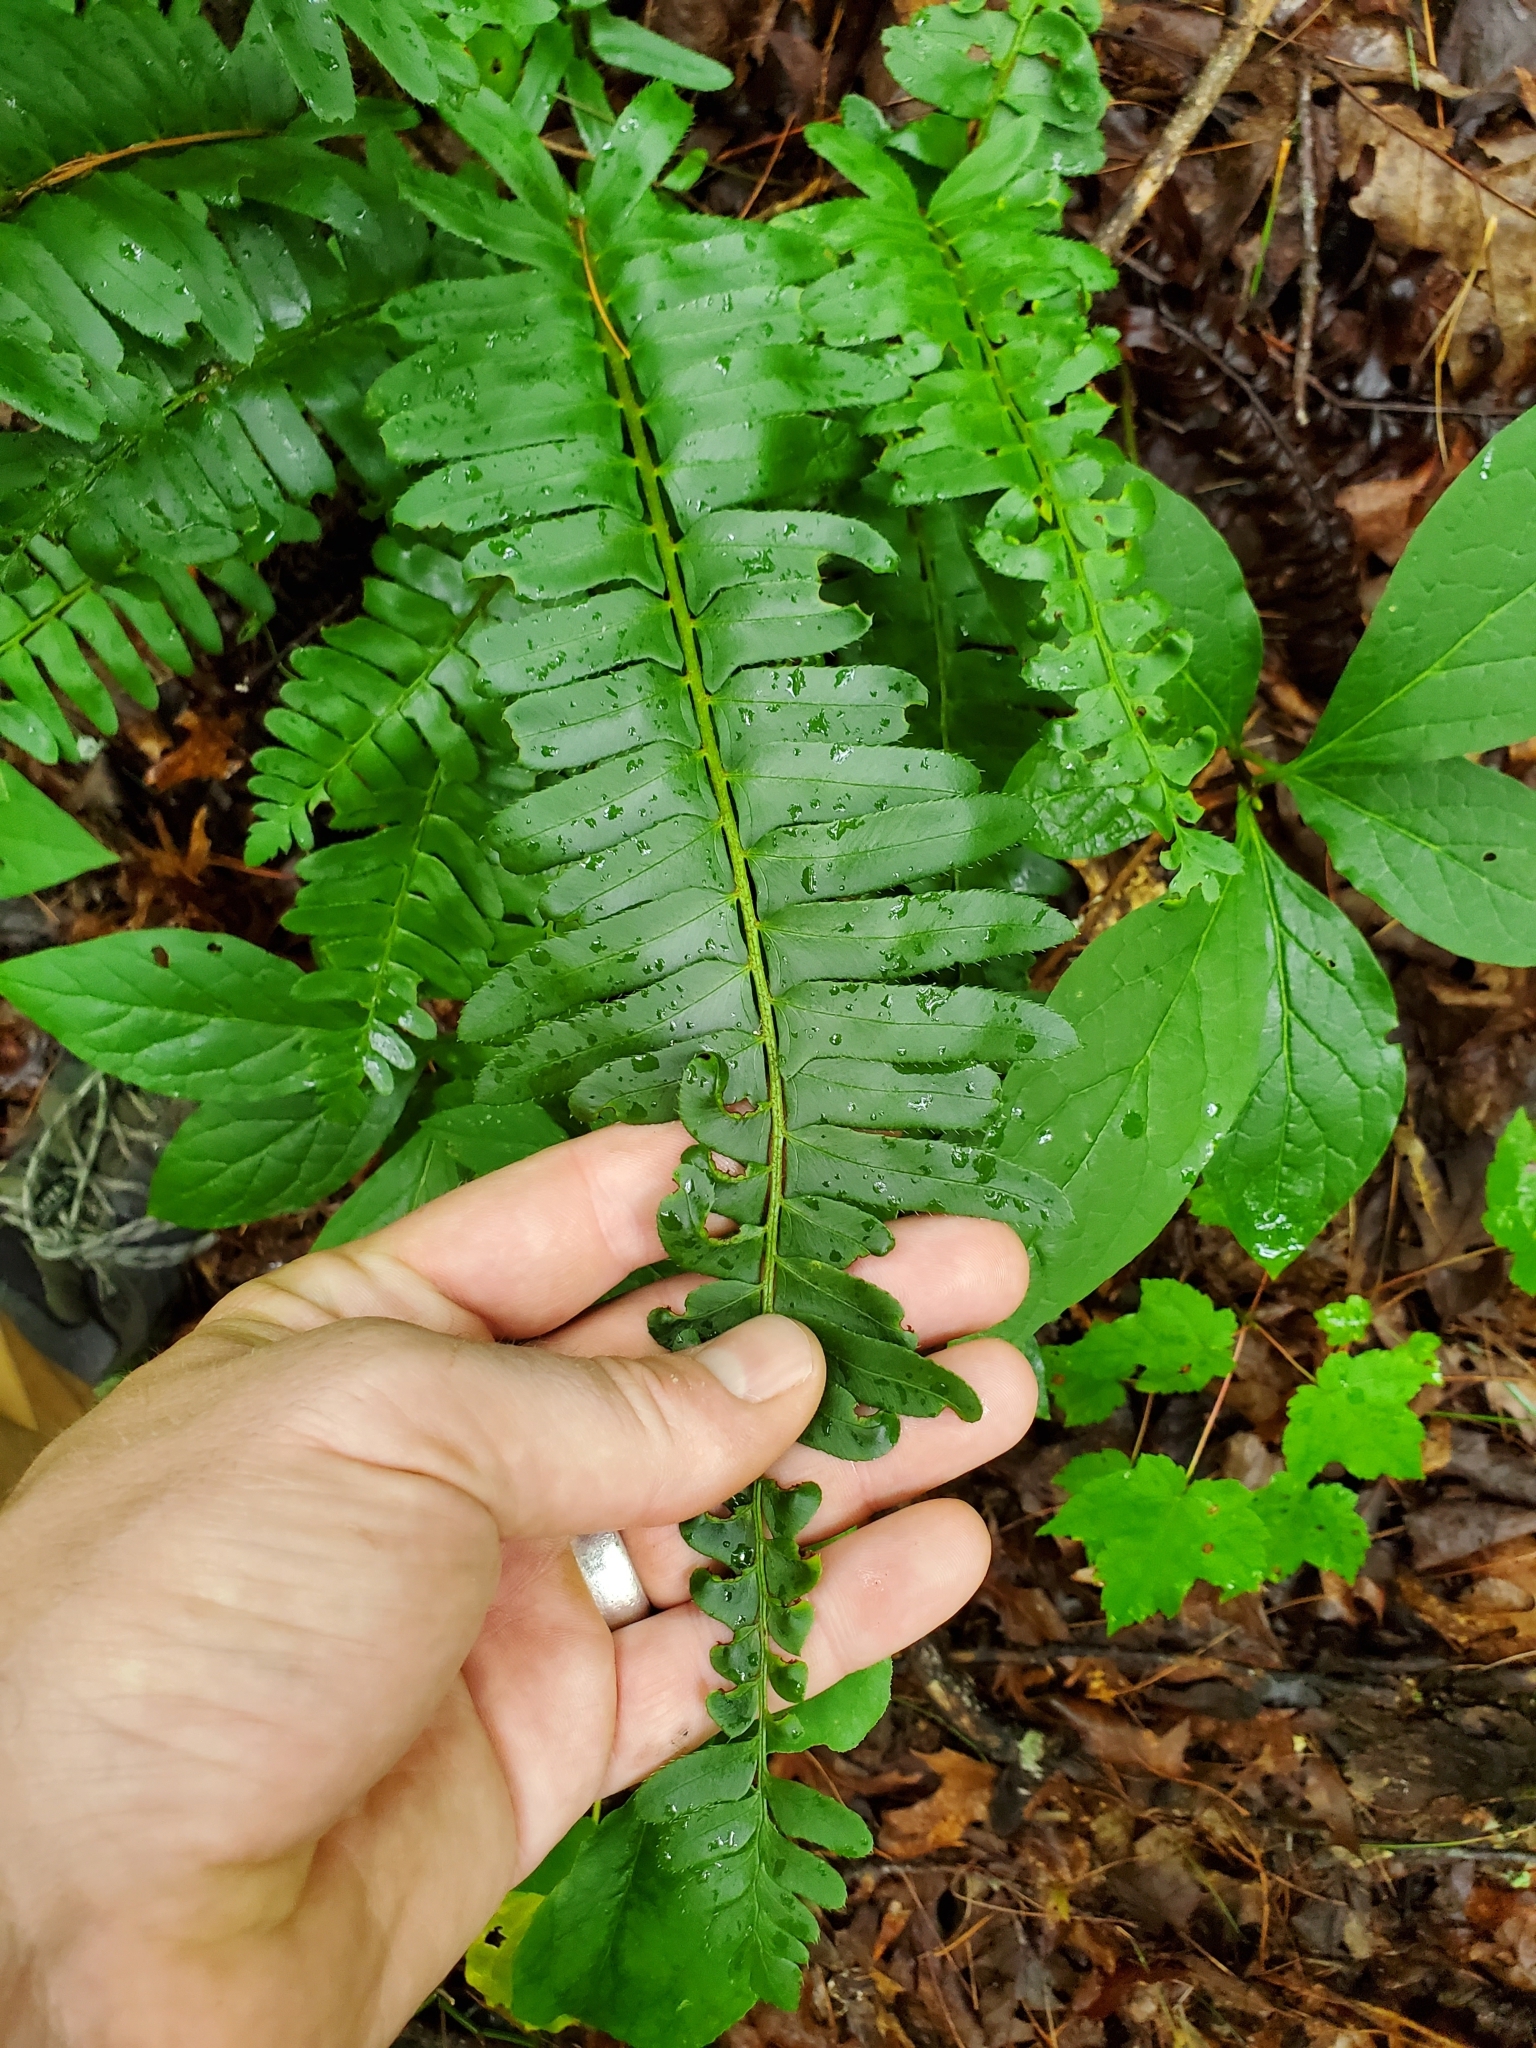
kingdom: Plantae
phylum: Tracheophyta
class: Polypodiopsida
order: Polypodiales
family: Dryopteridaceae
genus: Polystichum
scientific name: Polystichum acrostichoides
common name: Christmas fern
